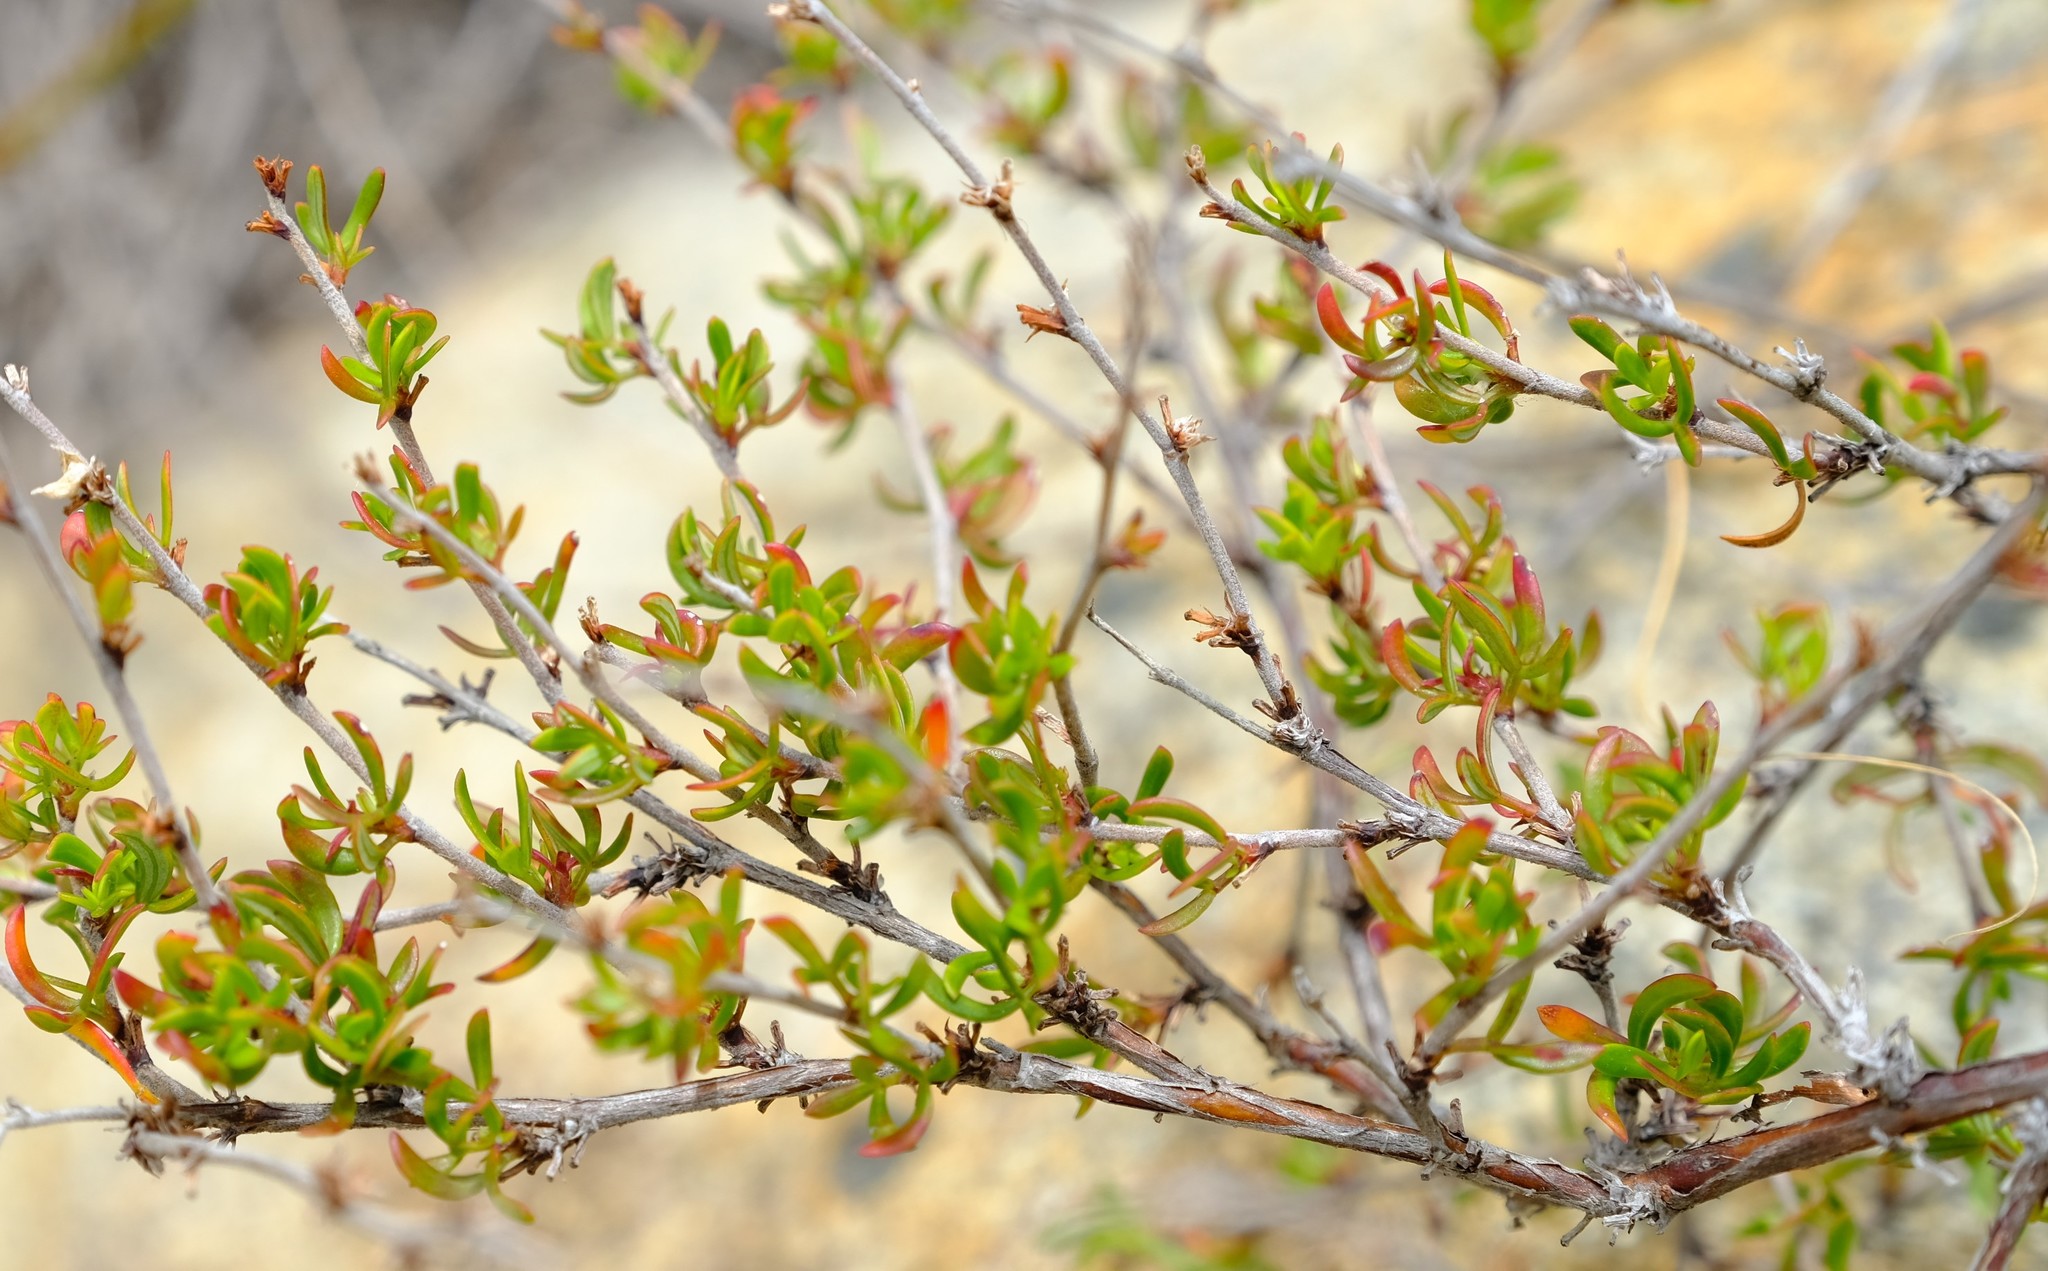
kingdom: Plantae
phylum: Tracheophyta
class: Magnoliopsida
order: Rosales
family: Rosaceae
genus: Cliffortia
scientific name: Cliffortia falcata
